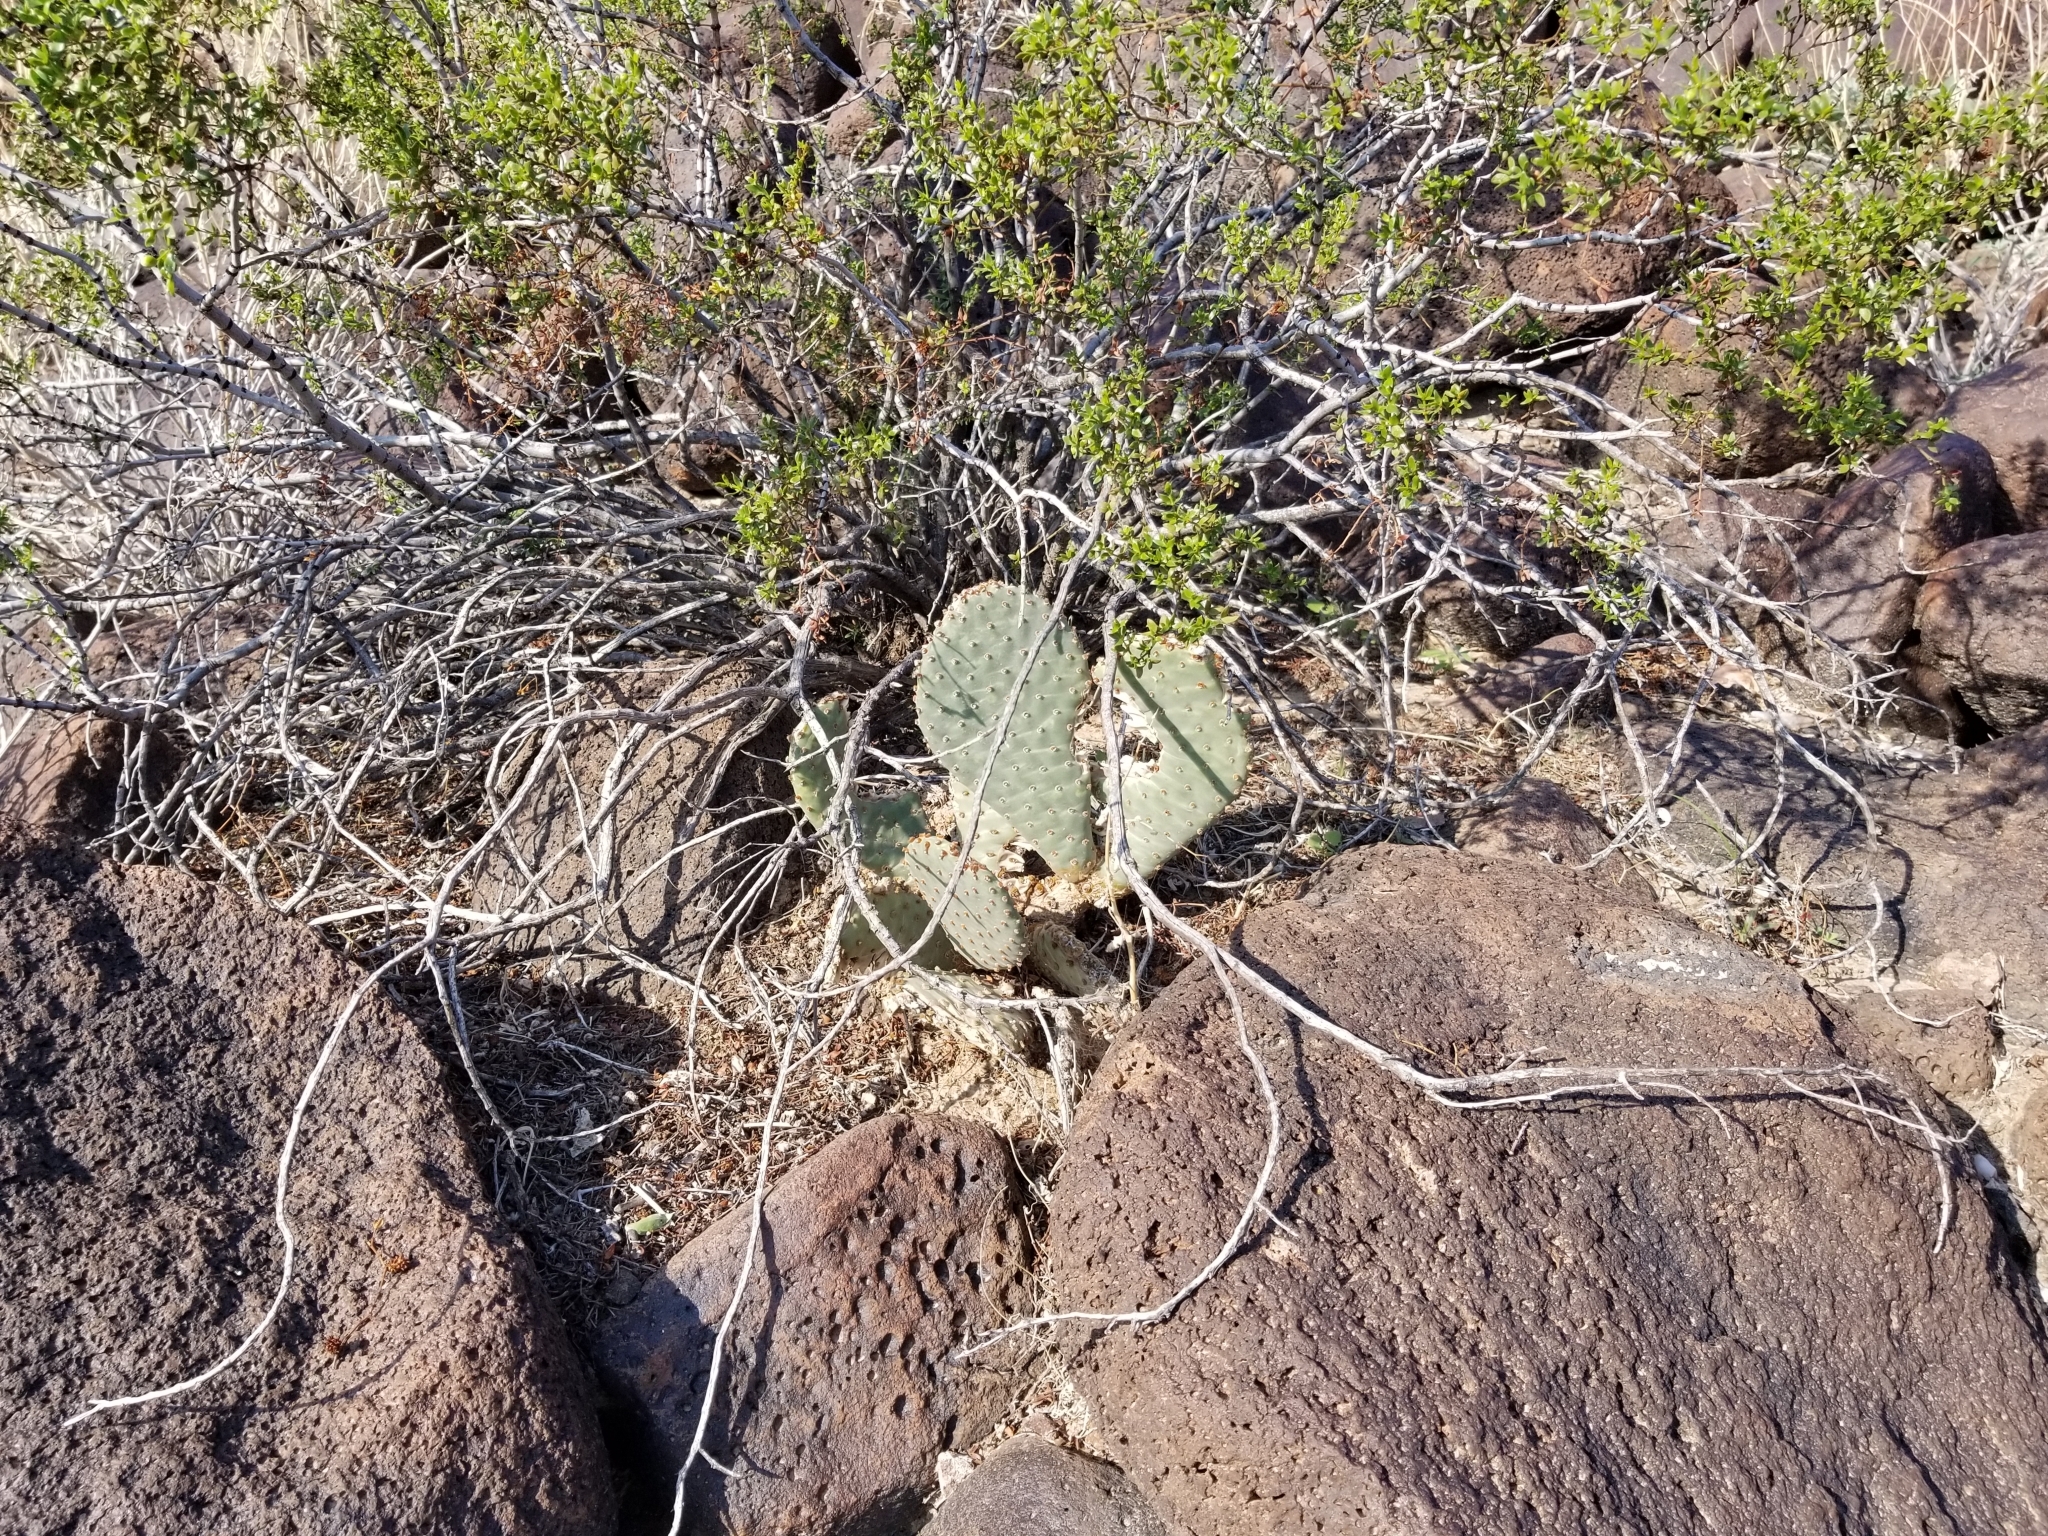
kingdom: Plantae
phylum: Tracheophyta
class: Magnoliopsida
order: Caryophyllales
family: Cactaceae
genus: Opuntia
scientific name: Opuntia basilaris
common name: Beavertail prickly-pear
